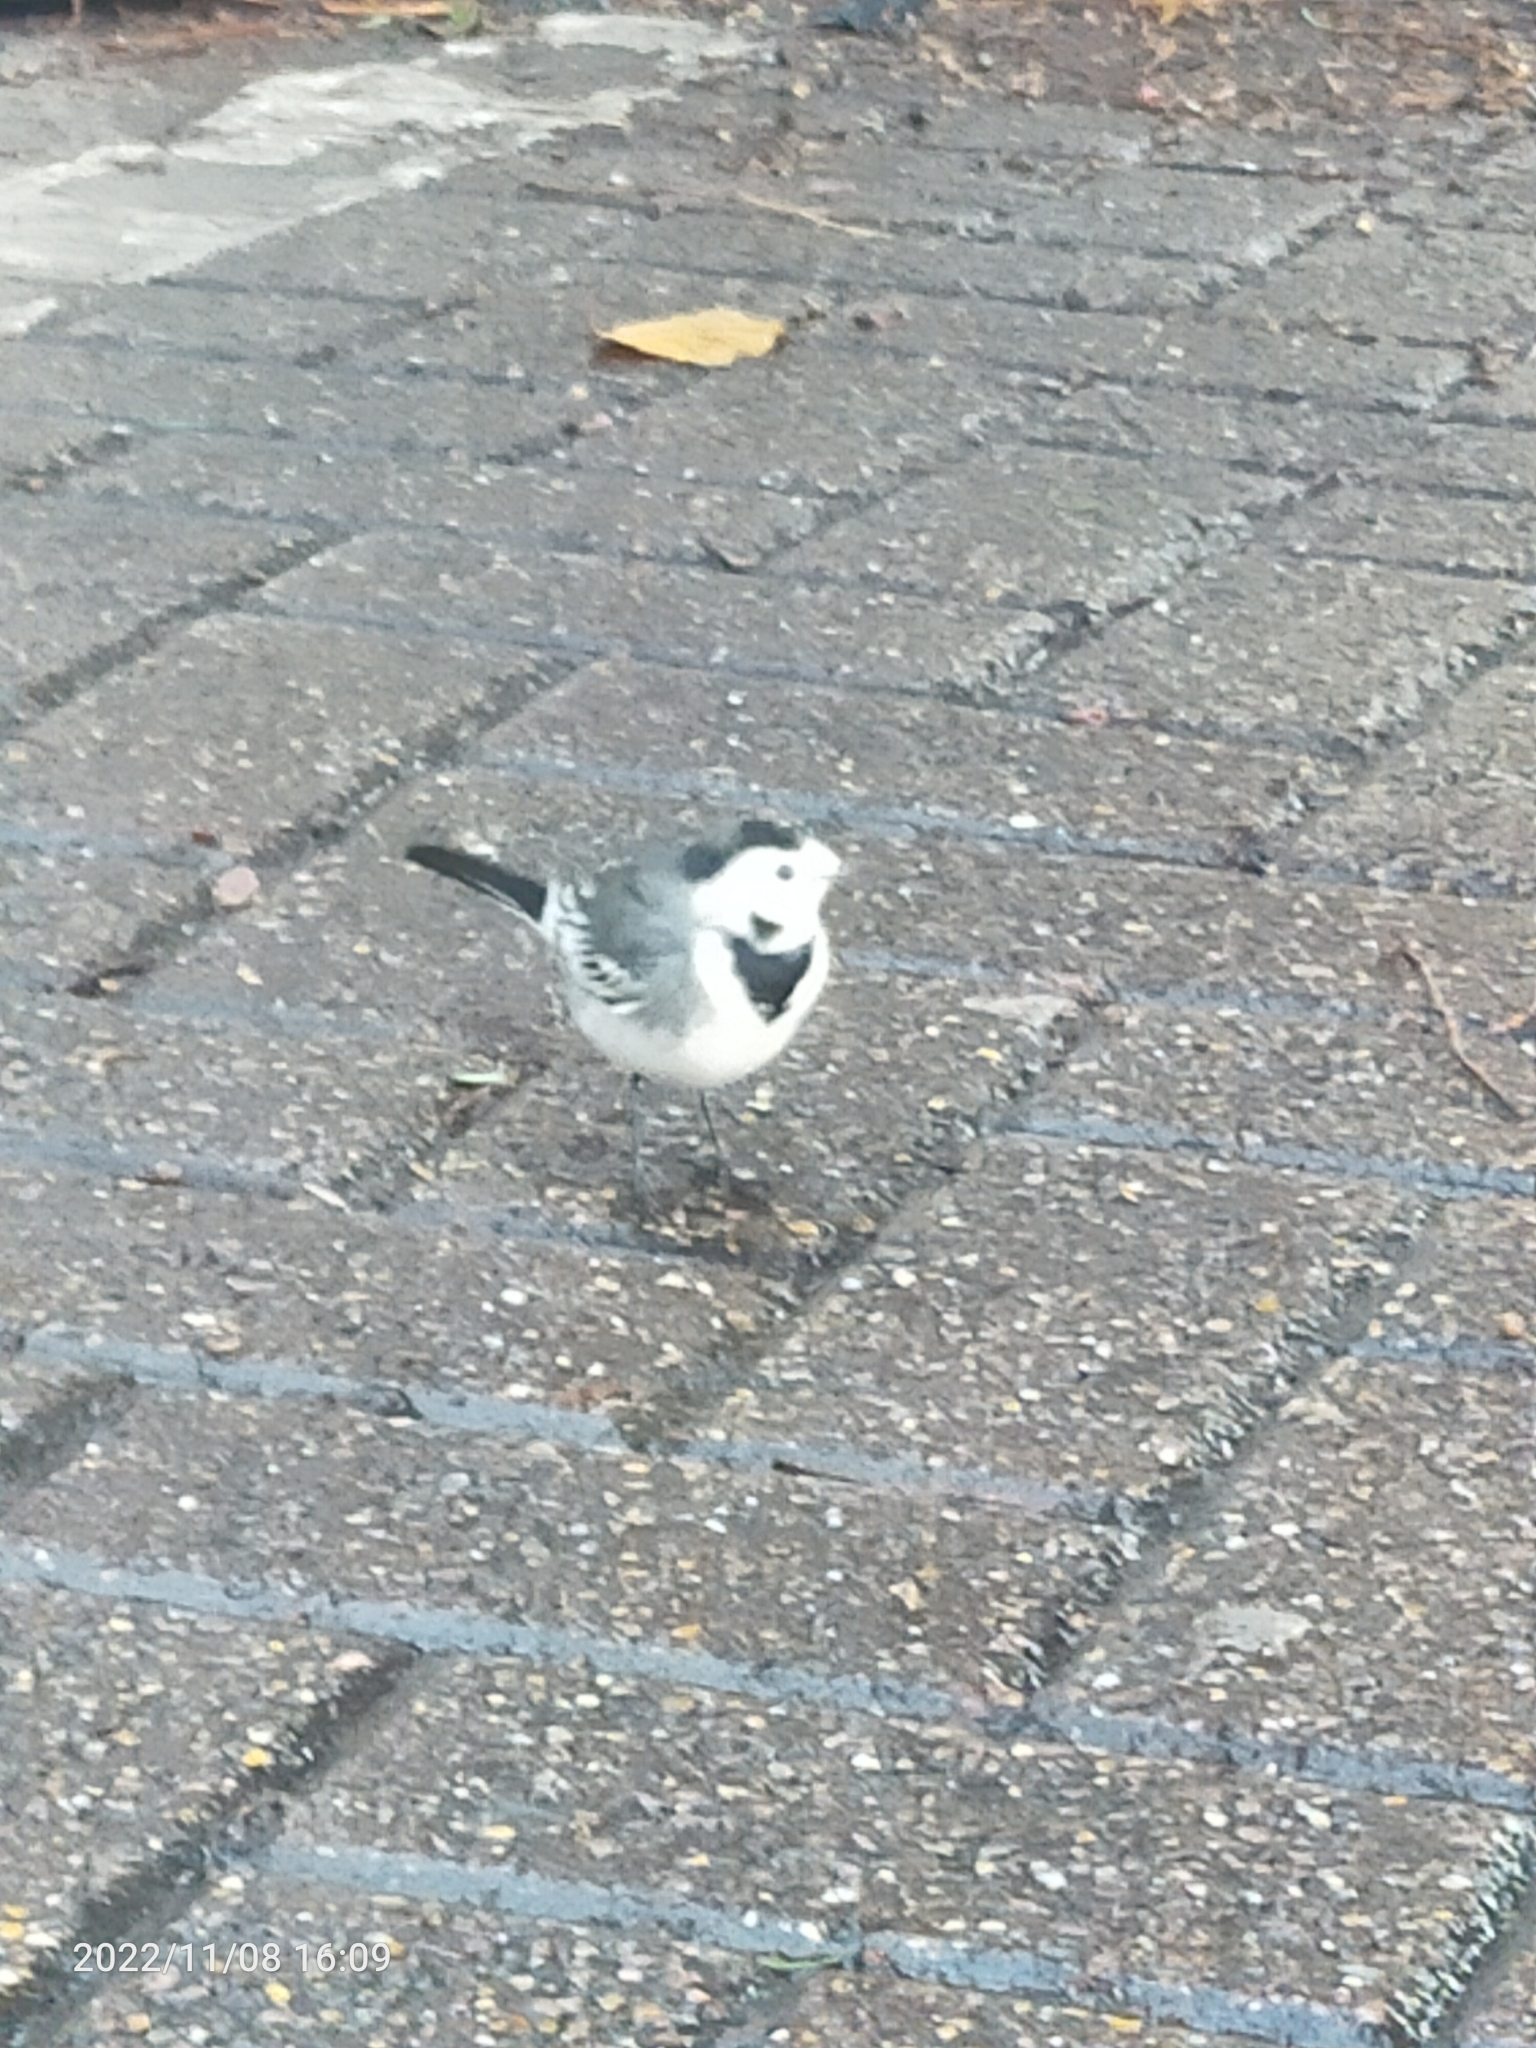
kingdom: Animalia
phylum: Chordata
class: Aves
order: Passeriformes
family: Motacillidae
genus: Motacilla
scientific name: Motacilla alba
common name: White wagtail
